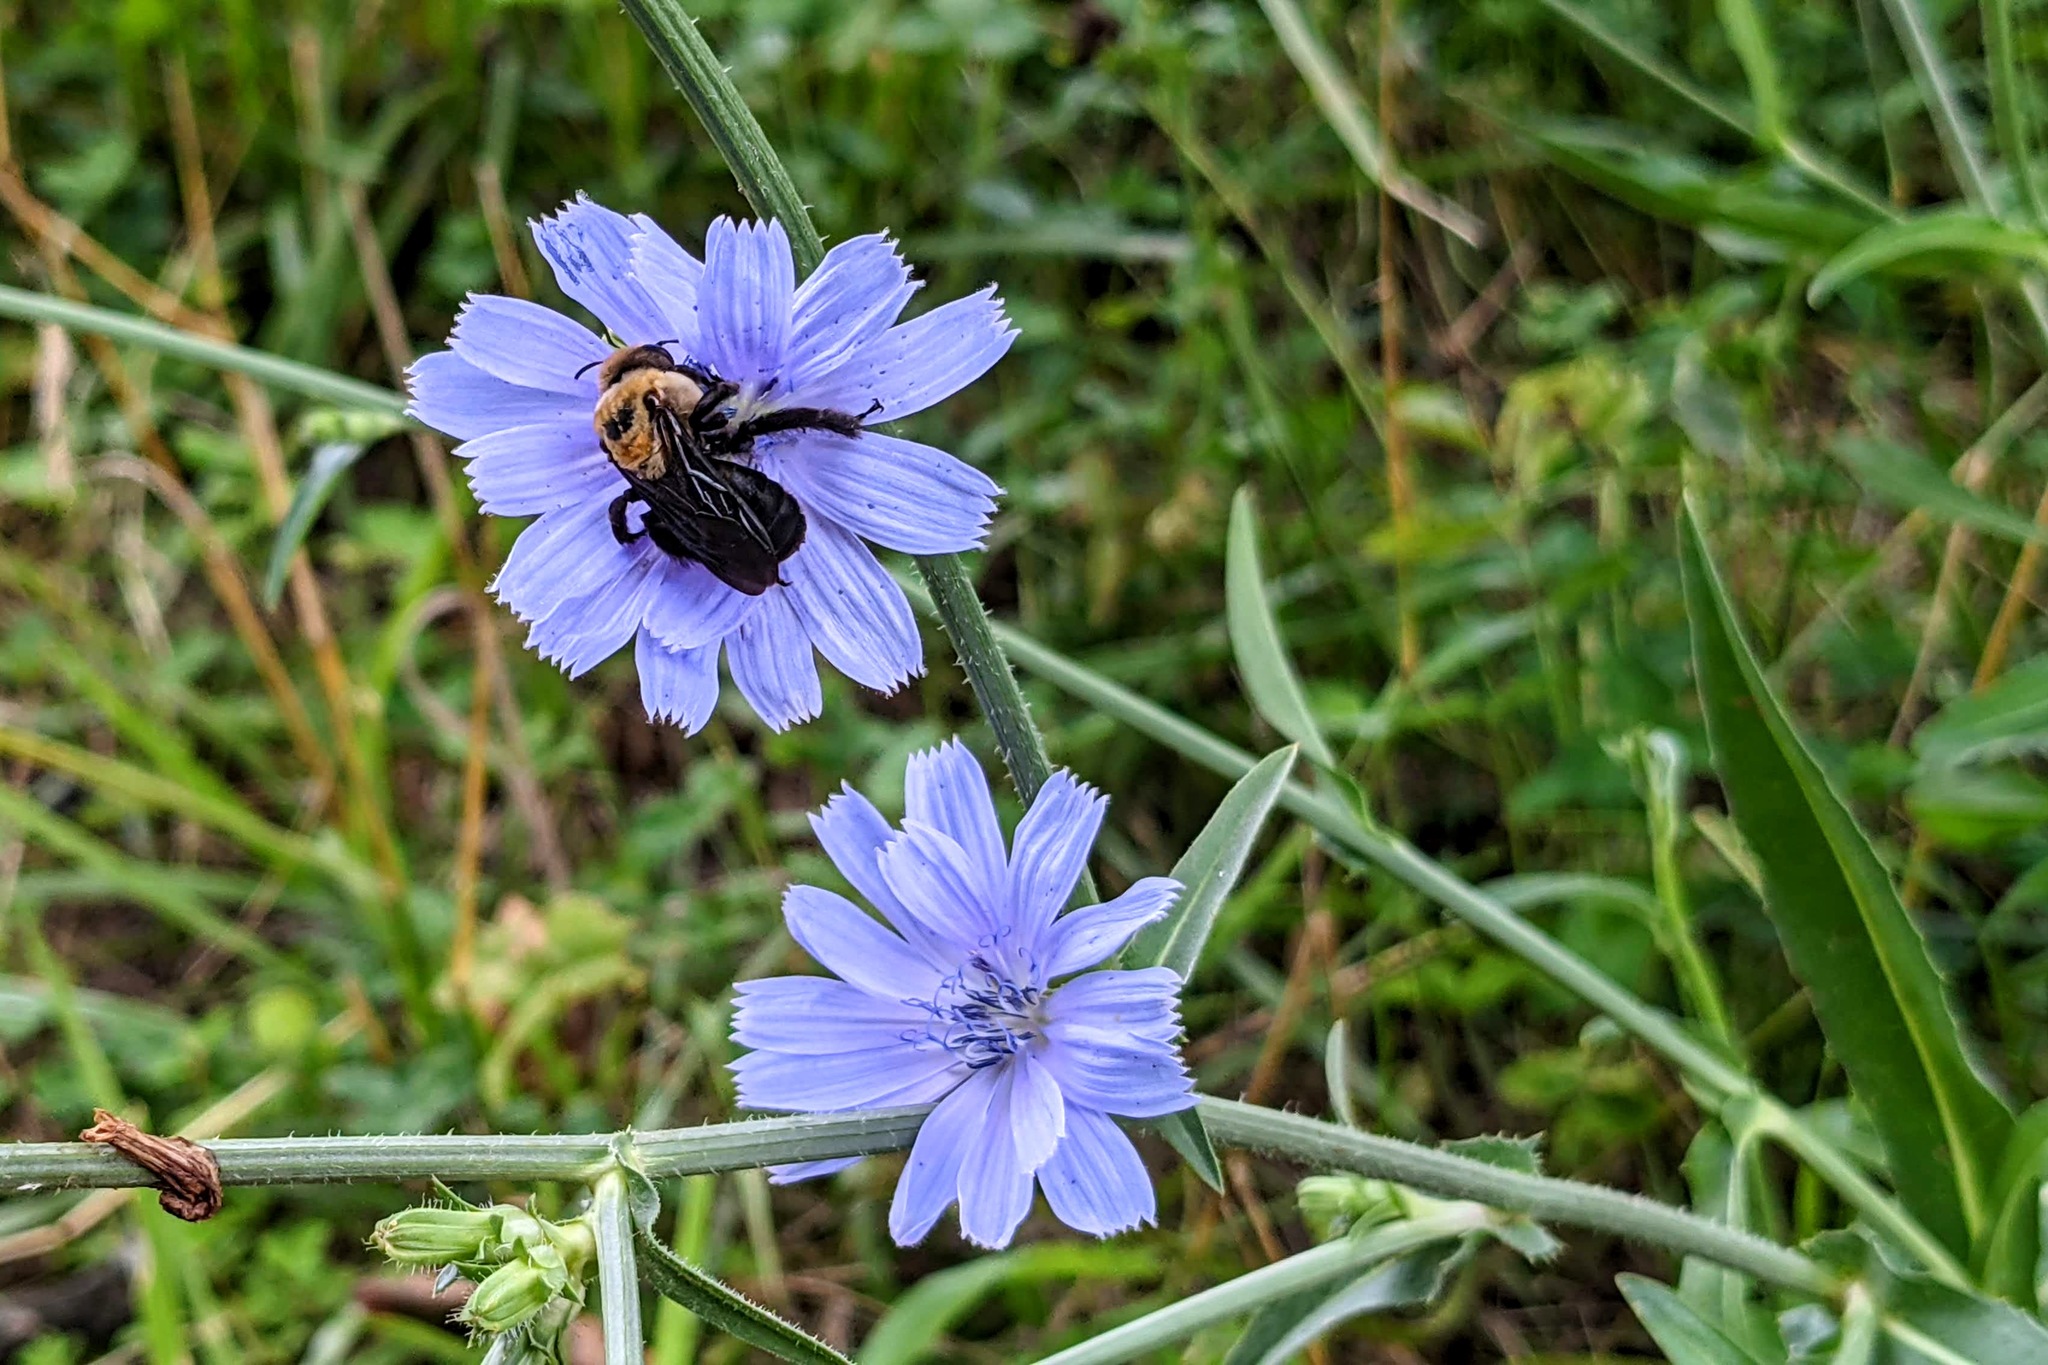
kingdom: Plantae
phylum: Tracheophyta
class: Magnoliopsida
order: Asterales
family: Asteraceae
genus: Cichorium
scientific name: Cichorium intybus
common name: Chicory
